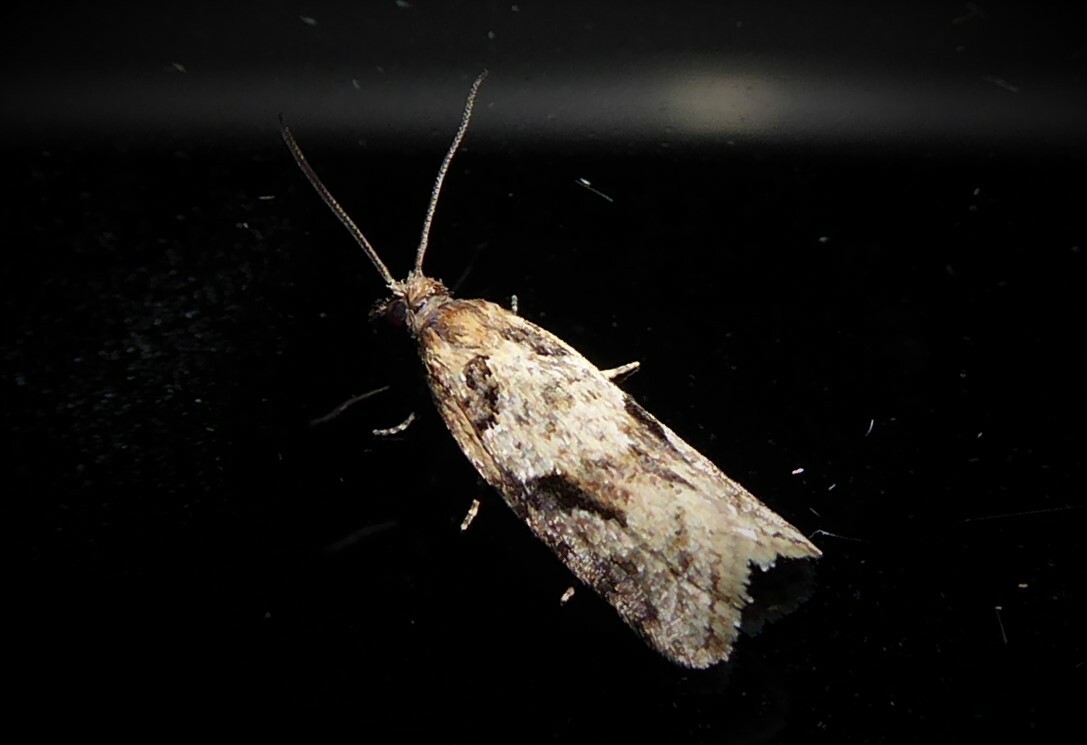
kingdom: Animalia
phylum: Arthropoda
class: Insecta
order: Lepidoptera
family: Tortricidae
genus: Capua
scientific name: Capua semiferana
